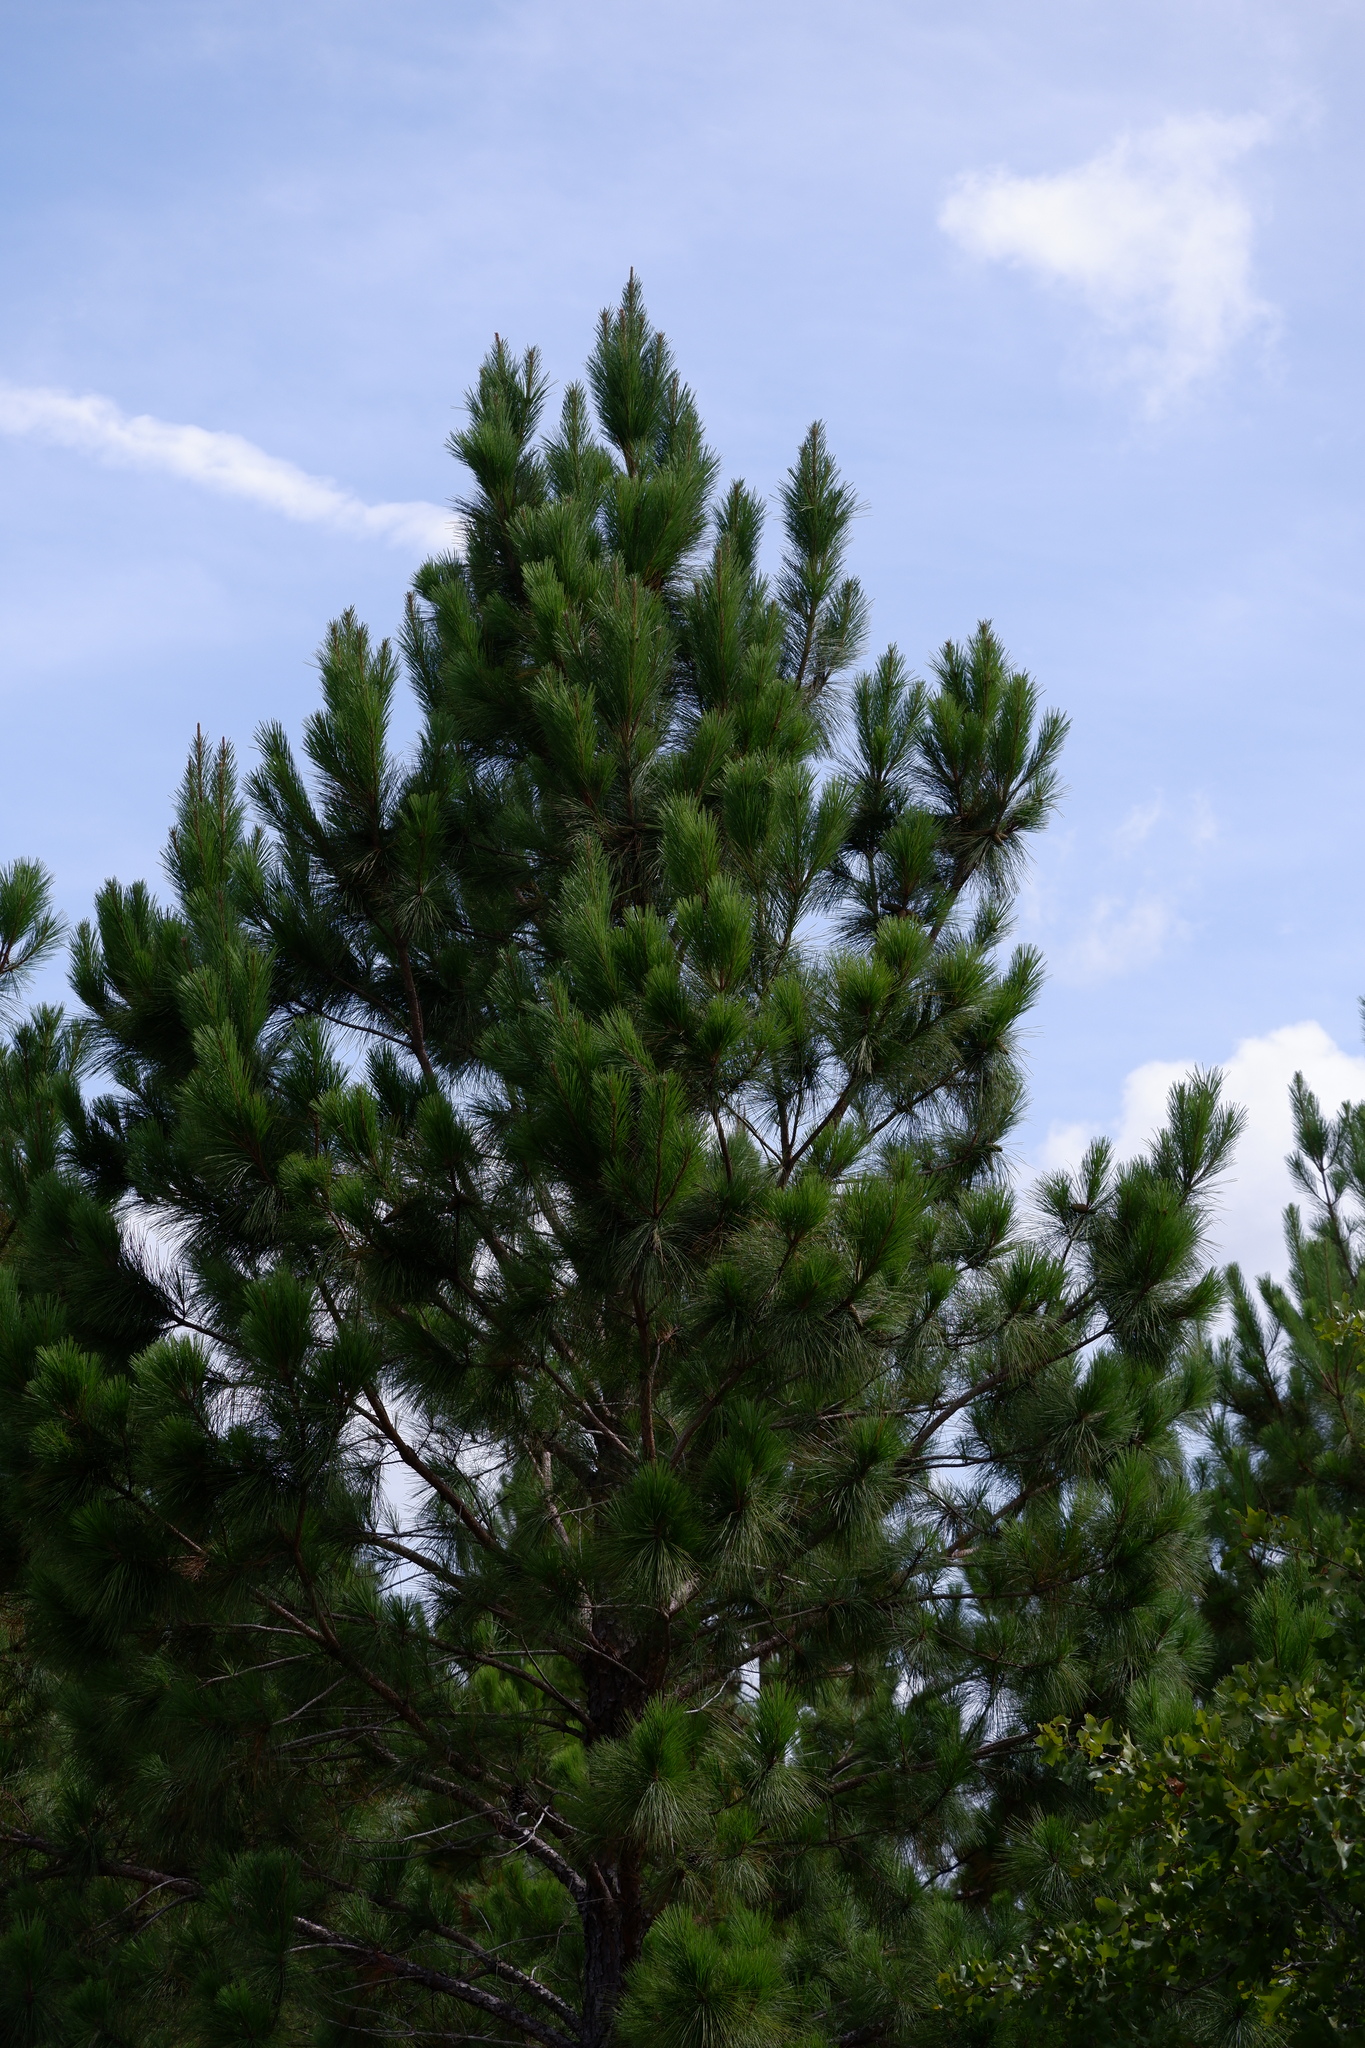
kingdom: Plantae
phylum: Tracheophyta
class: Pinopsida
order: Pinales
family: Pinaceae
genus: Pinus
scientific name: Pinus taeda
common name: Loblolly pine
